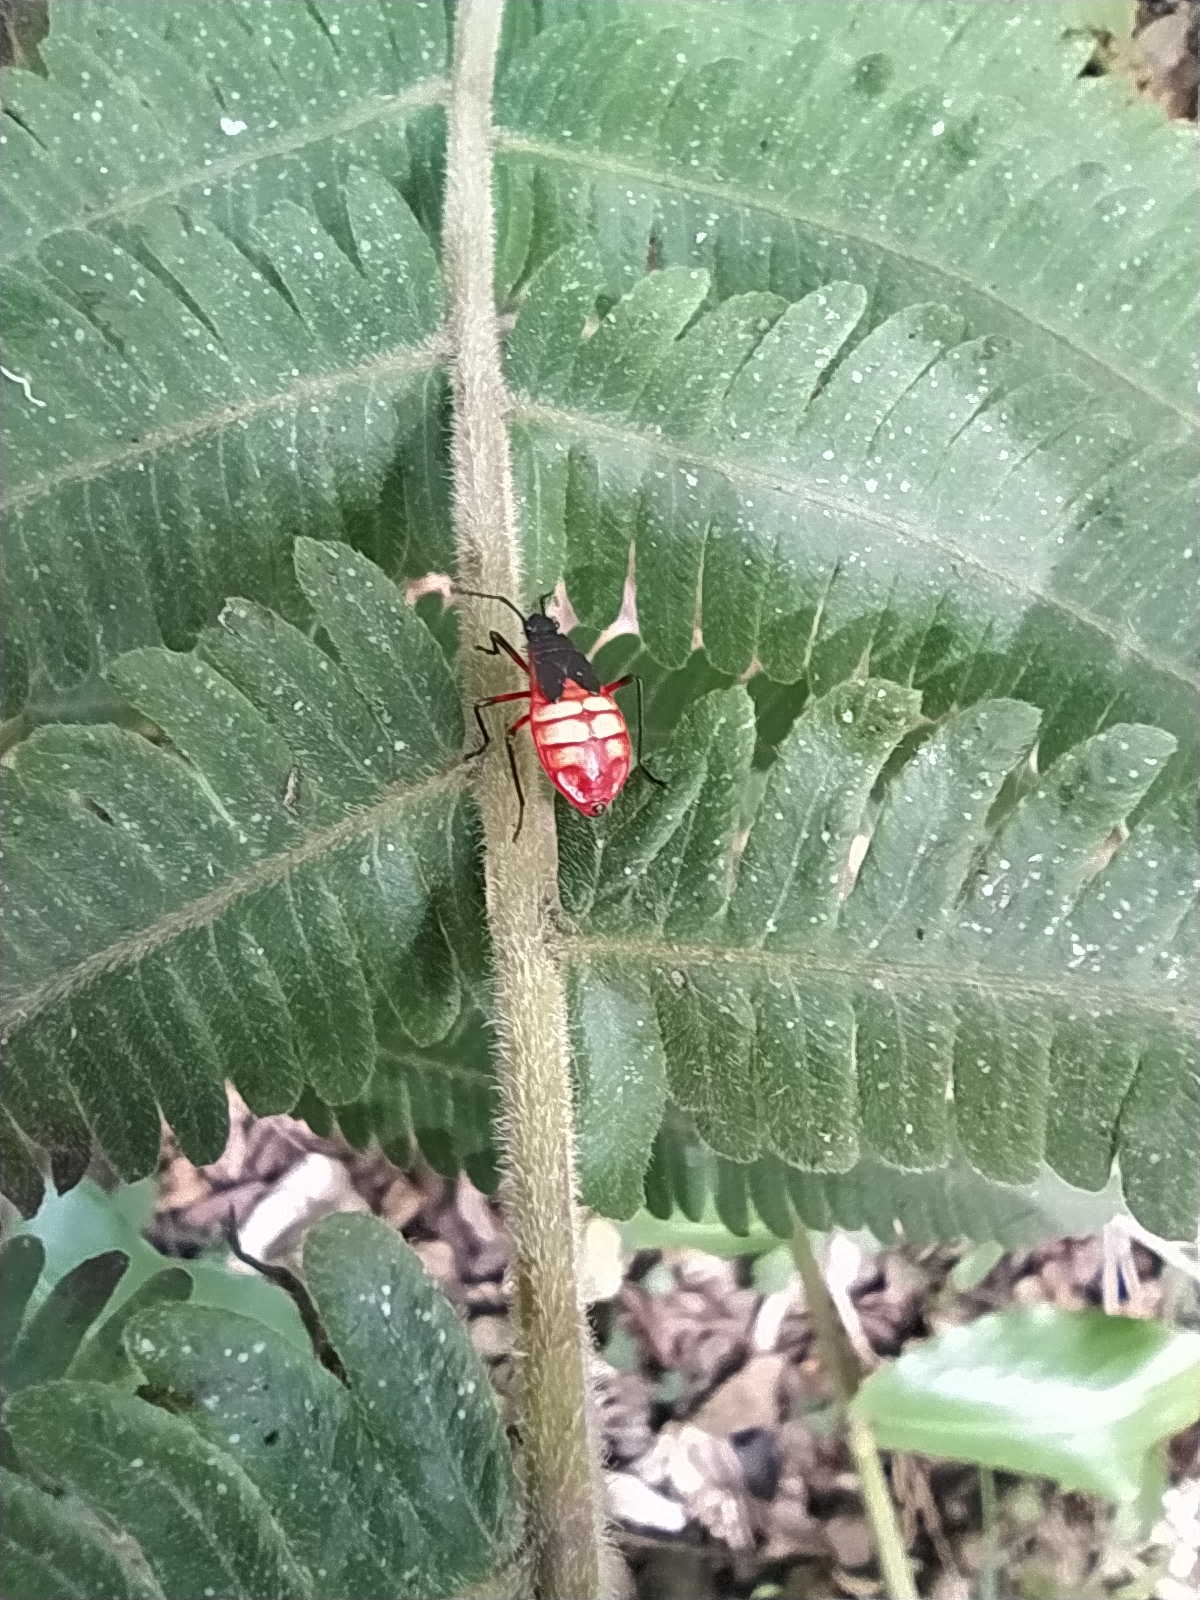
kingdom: Animalia
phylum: Arthropoda
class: Insecta
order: Hemiptera
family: Pyrrhocoridae
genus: Dysdercus
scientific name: Dysdercus albofasciatus
